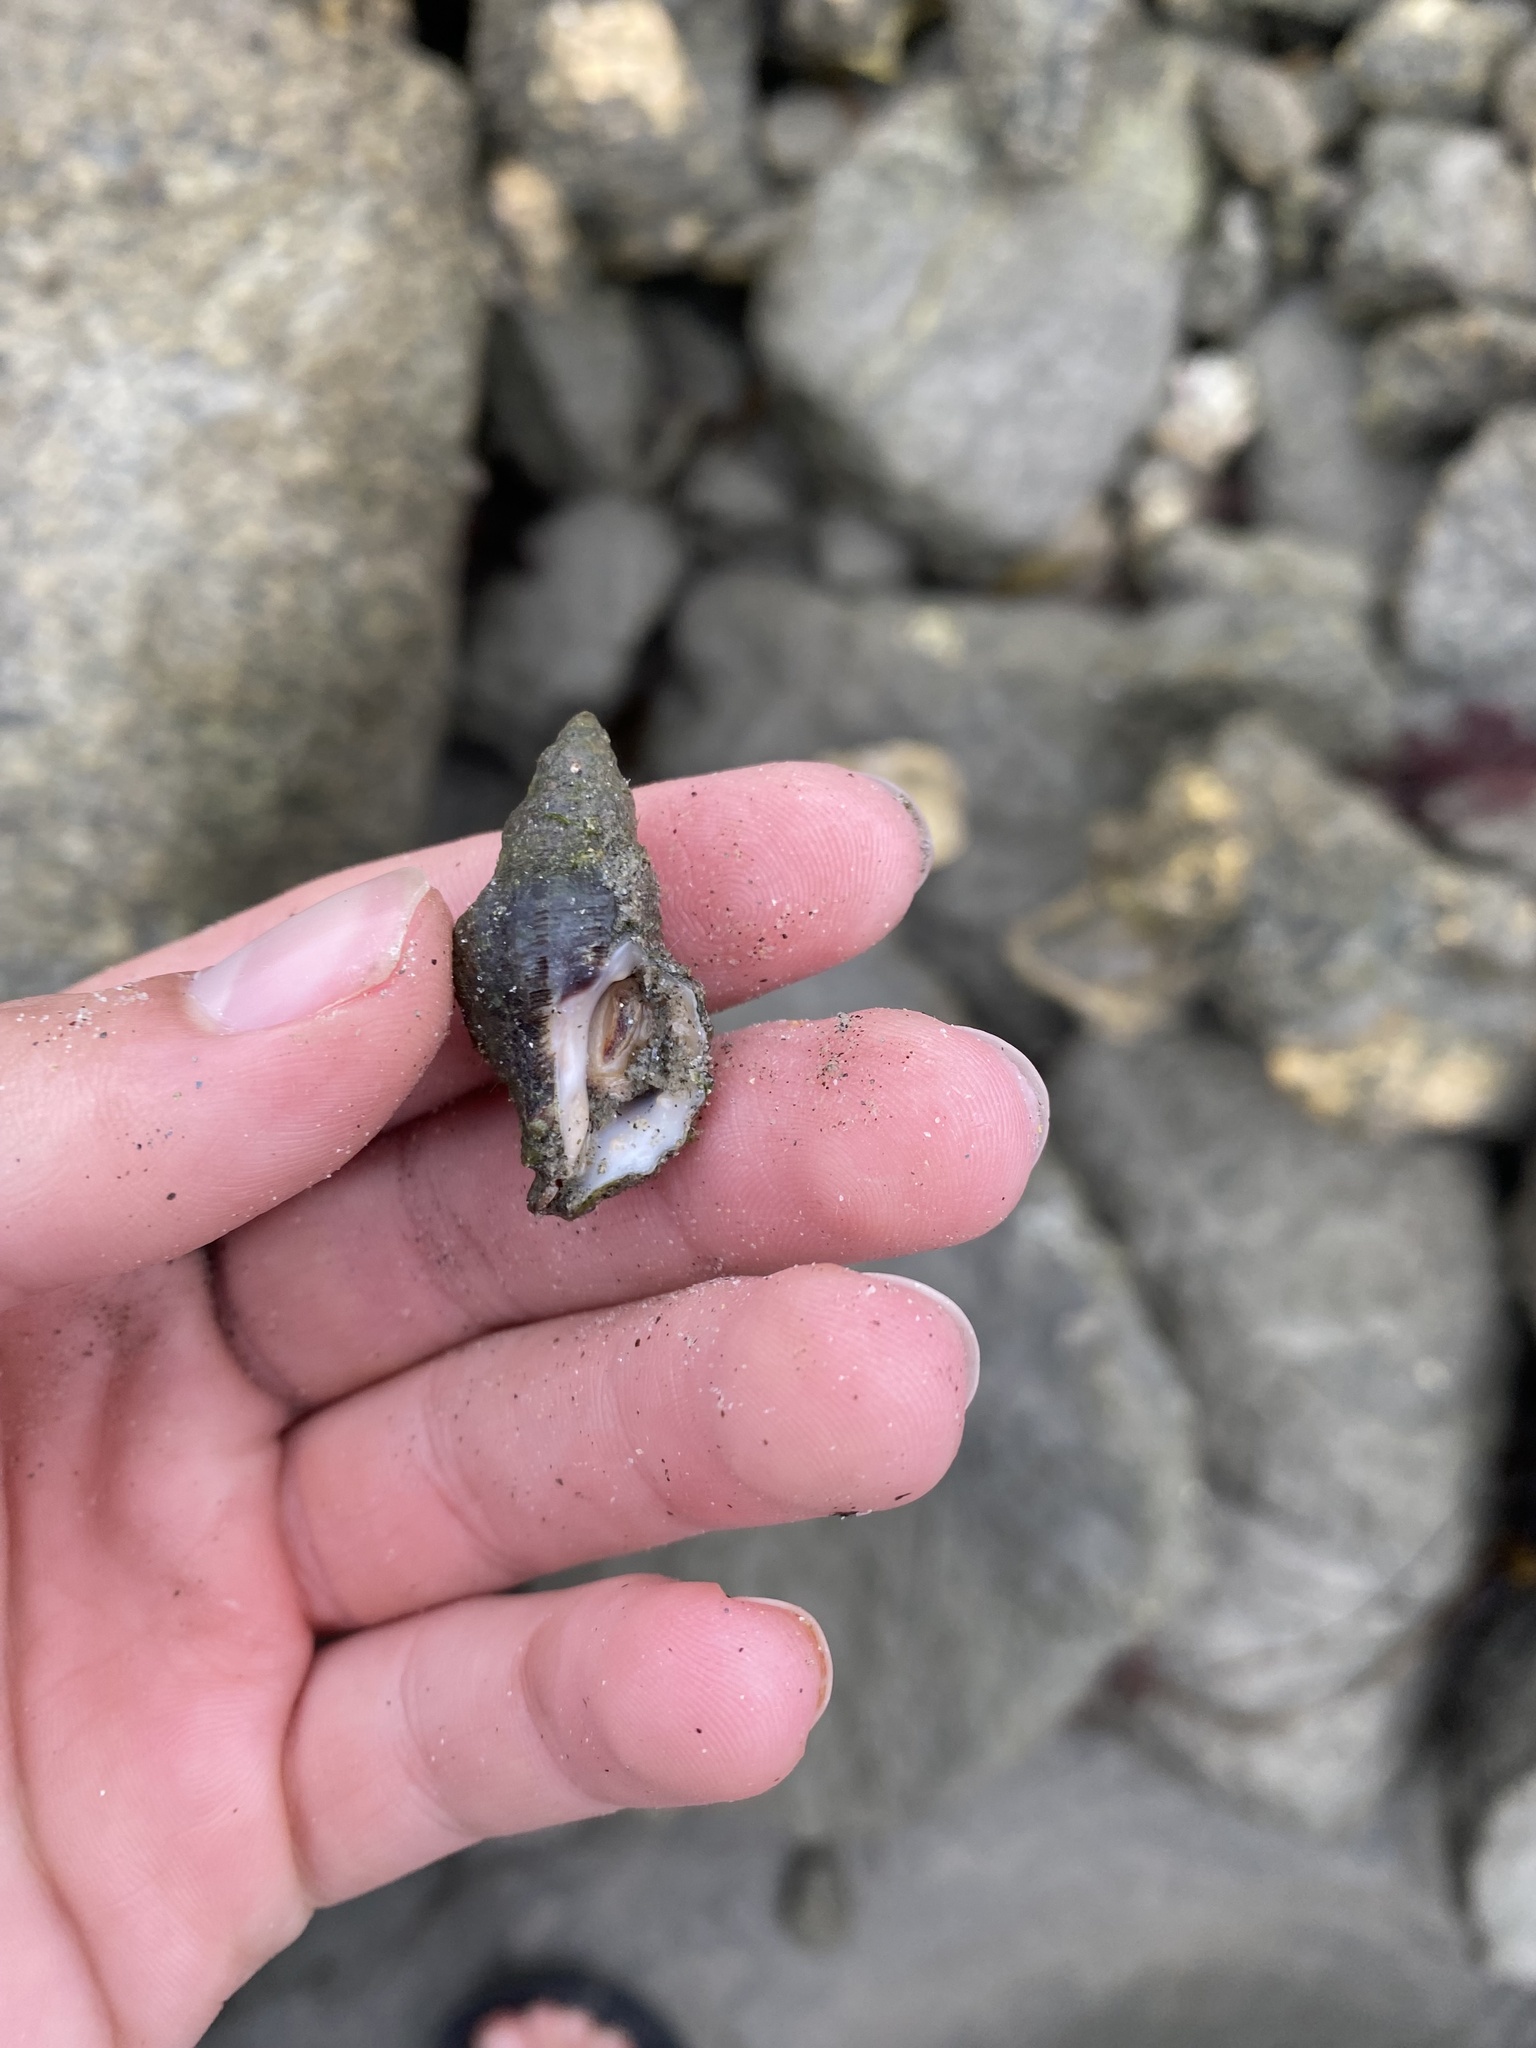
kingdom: Animalia
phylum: Mollusca
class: Gastropoda
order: Neogastropoda
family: Muricidae
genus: Roperia
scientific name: Roperia poulsoni
